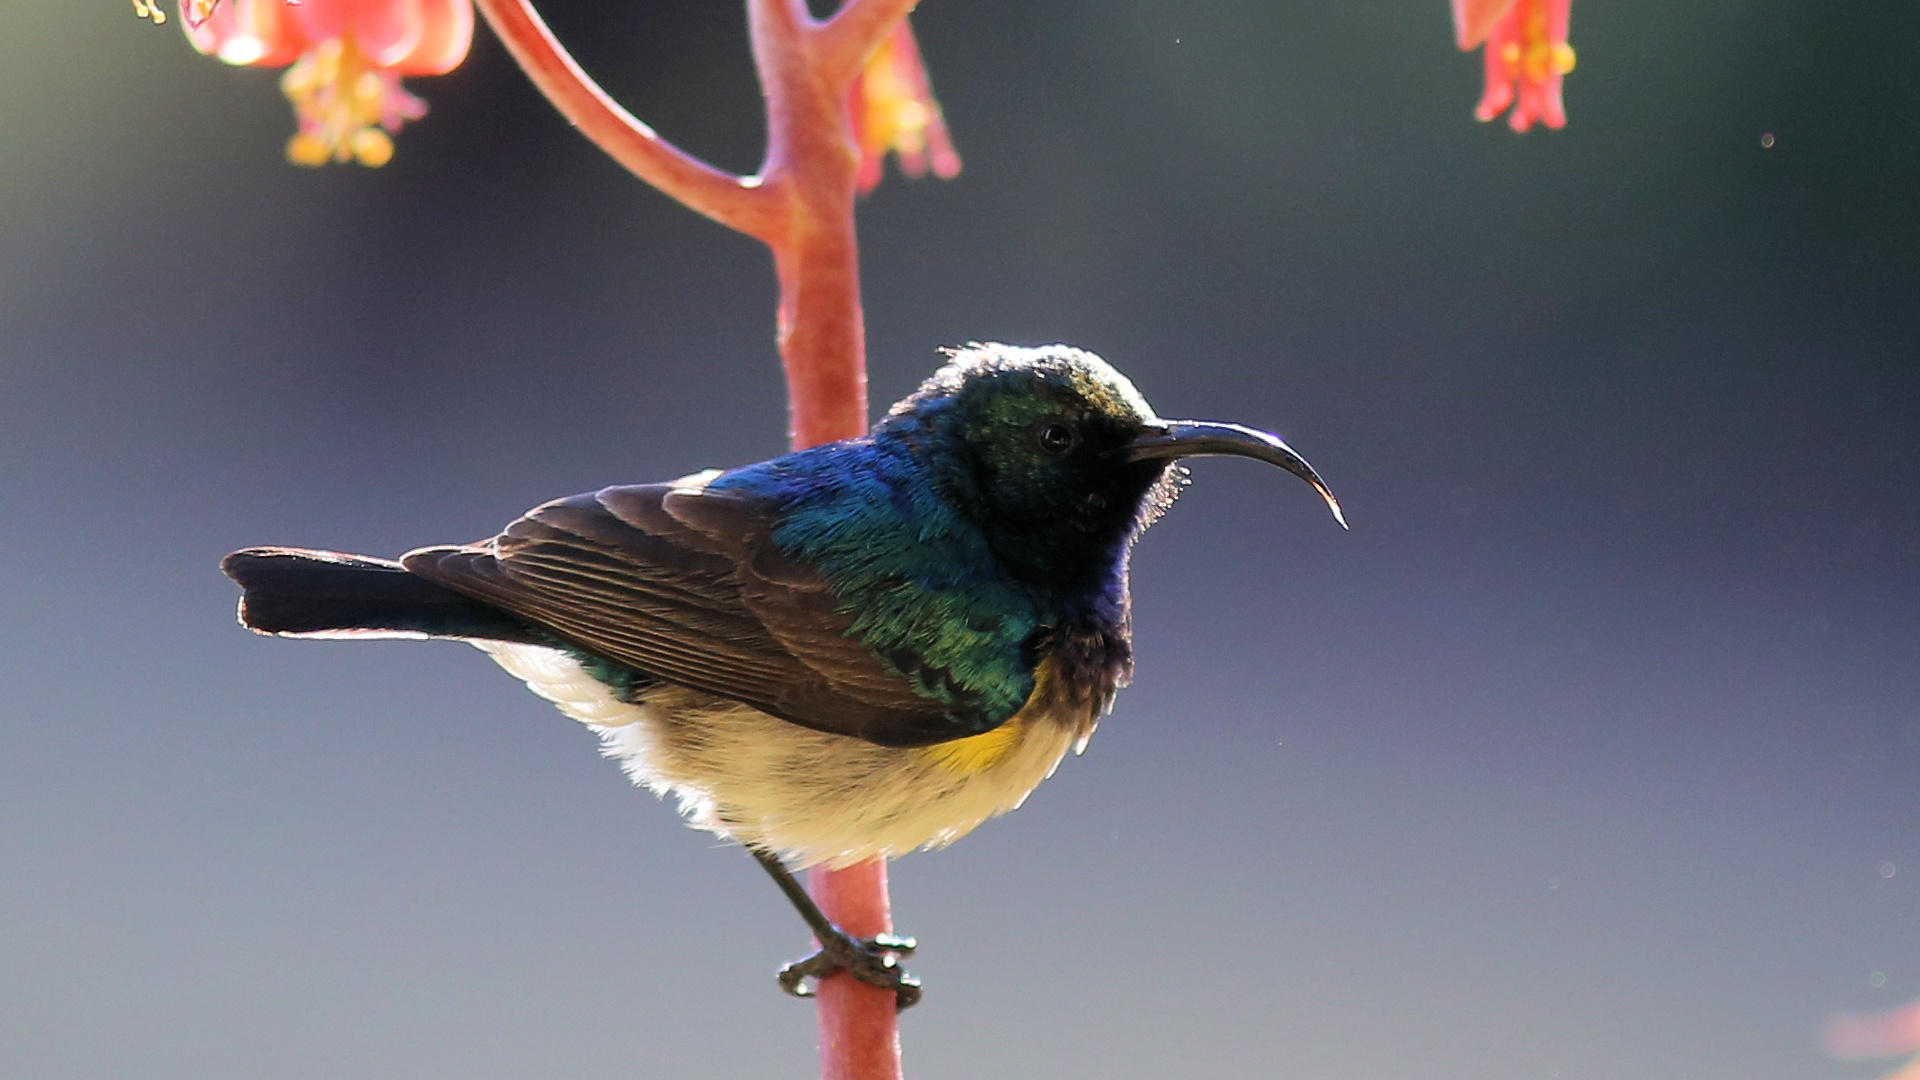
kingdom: Animalia
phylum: Chordata
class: Aves
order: Passeriformes
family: Nectariniidae
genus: Cinnyris
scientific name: Cinnyris talatala
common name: White-bellied sunbird
